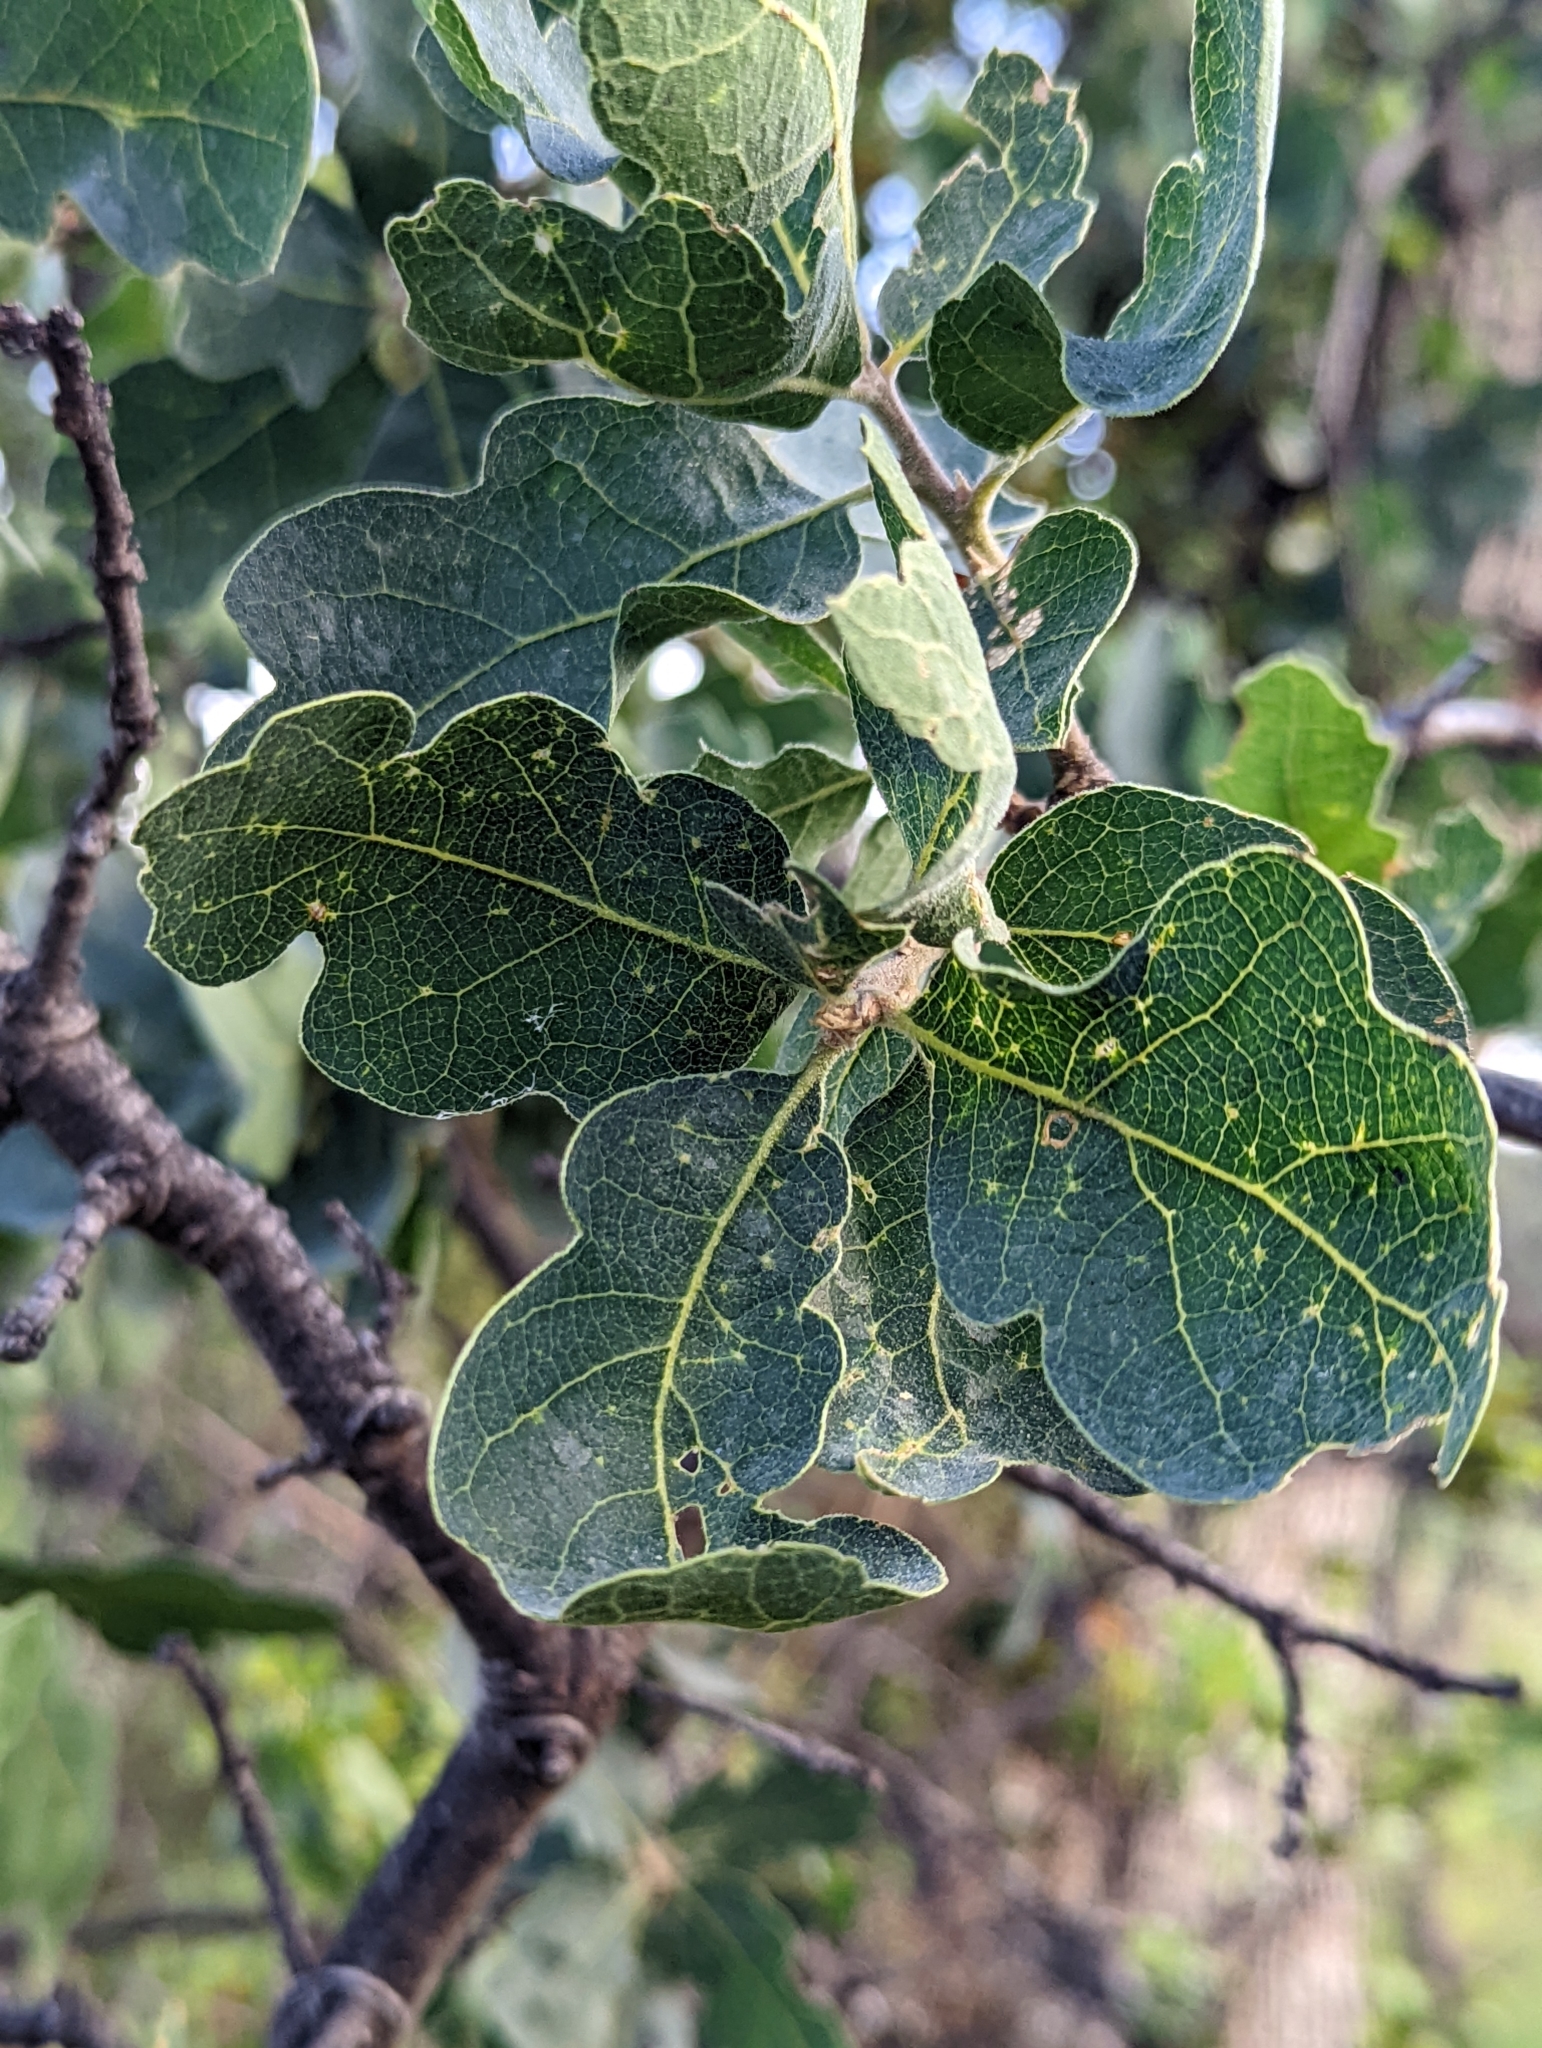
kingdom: Plantae
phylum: Tracheophyta
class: Magnoliopsida
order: Fagales
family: Fagaceae
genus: Quercus
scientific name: Quercus douglasii
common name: Blue oak
